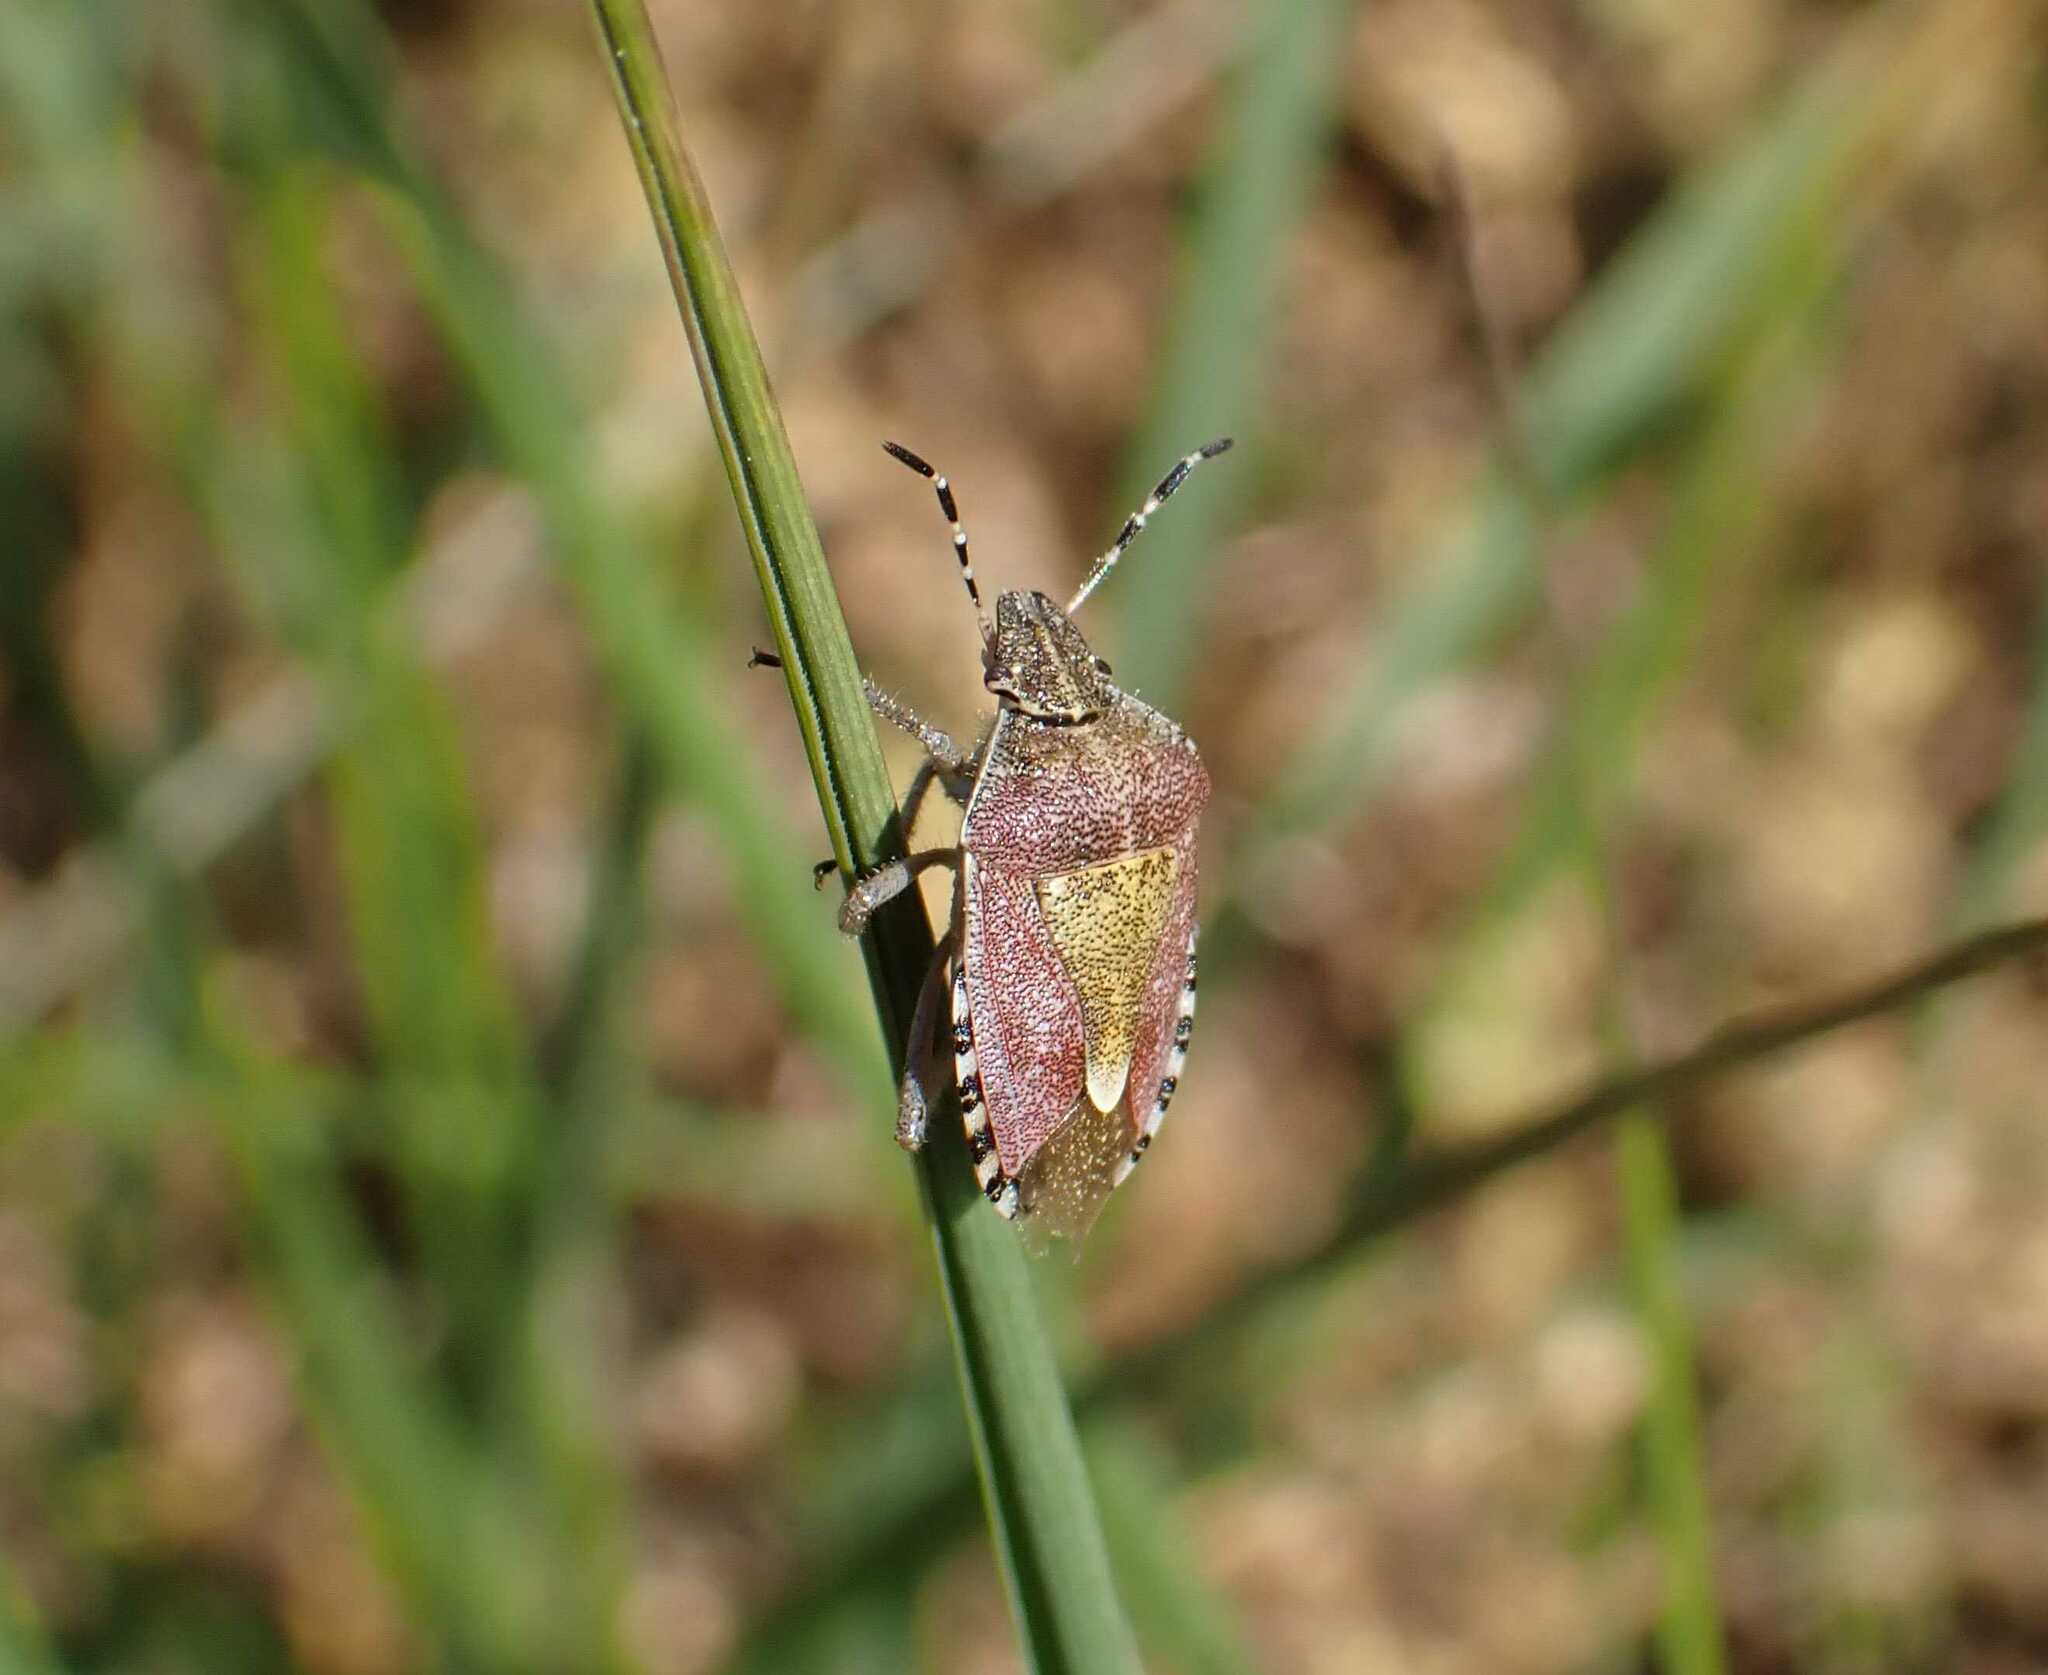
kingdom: Animalia
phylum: Arthropoda
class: Insecta
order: Hemiptera
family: Pentatomidae
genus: Dolycoris
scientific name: Dolycoris baccarum
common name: Sloe bug
